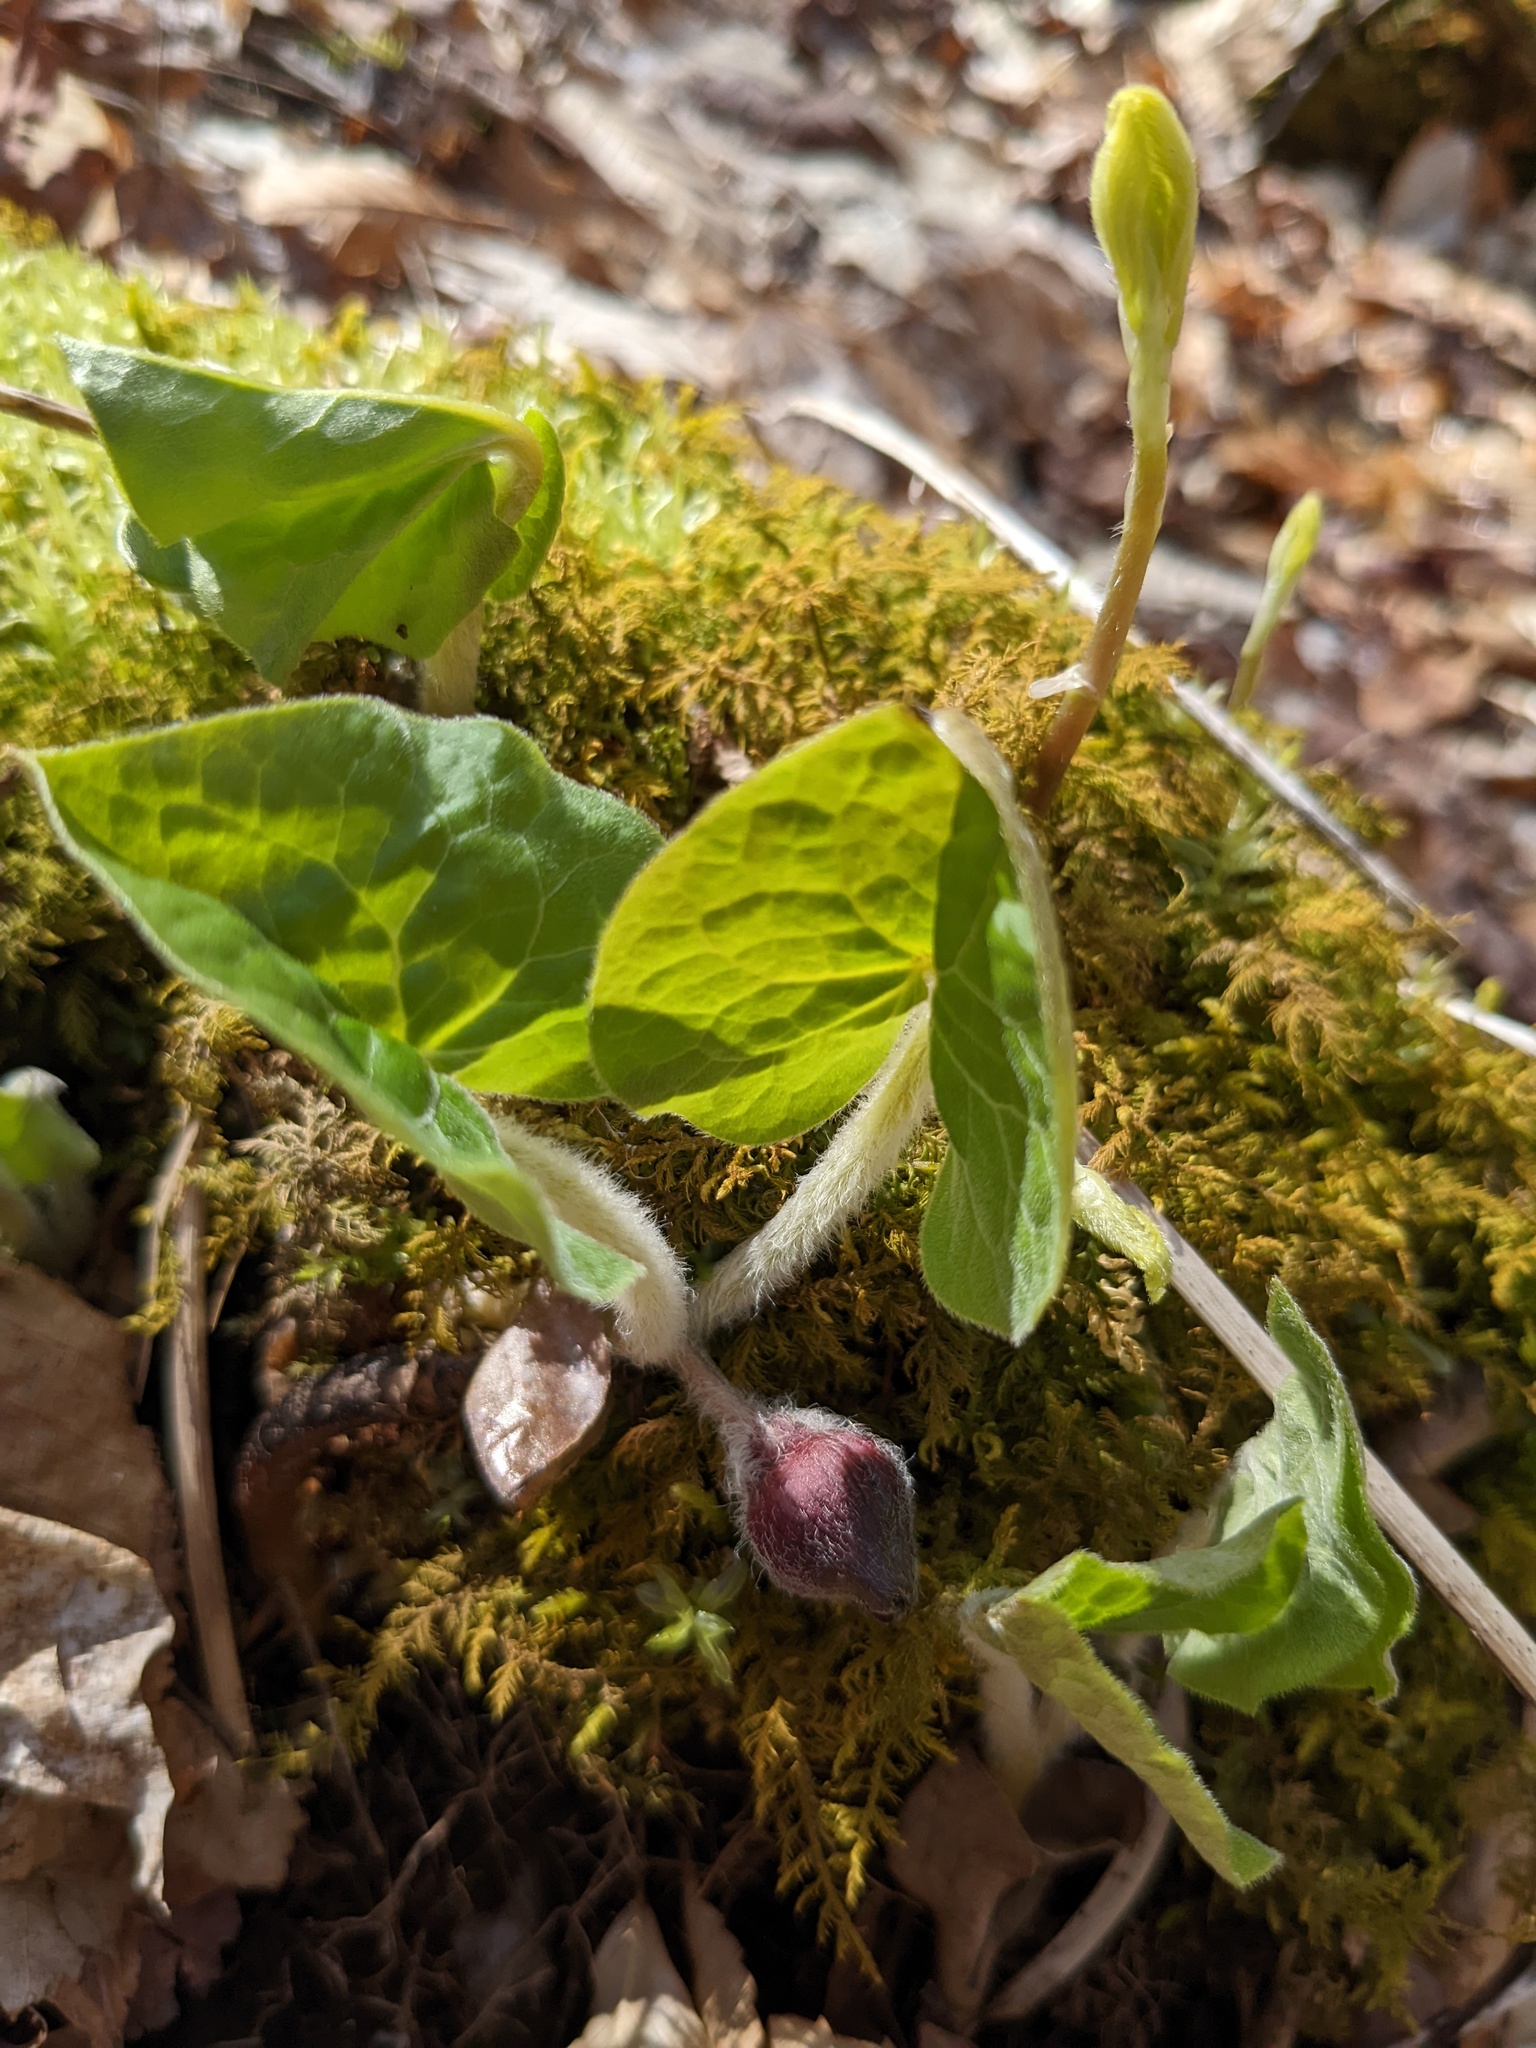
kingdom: Plantae
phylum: Tracheophyta
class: Magnoliopsida
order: Piperales
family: Aristolochiaceae
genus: Asarum
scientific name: Asarum canadense
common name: Wild ginger
